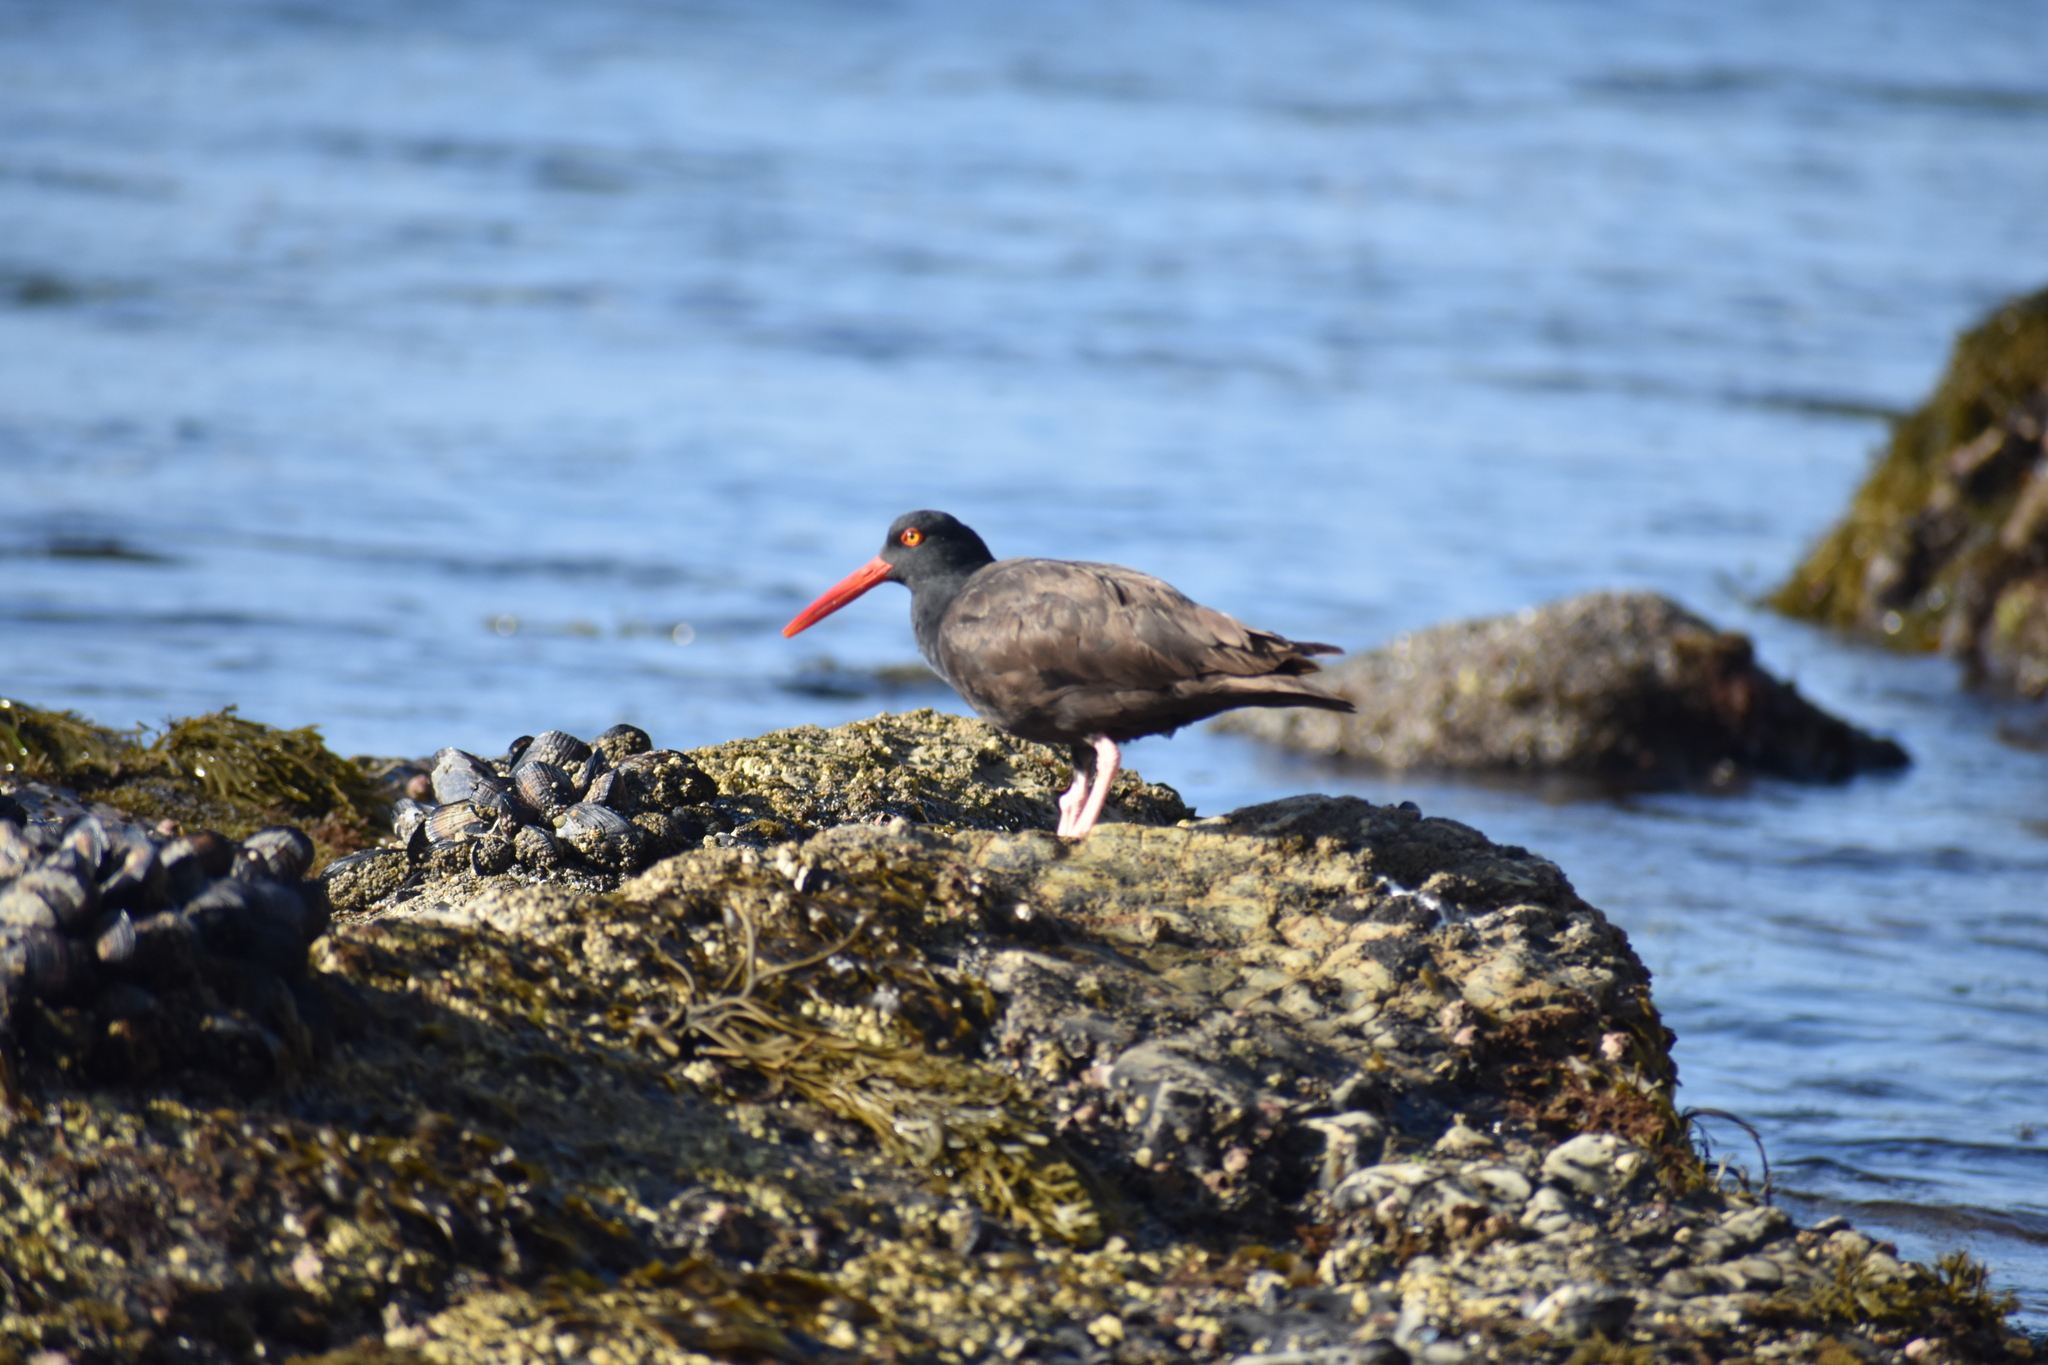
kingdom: Animalia
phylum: Chordata
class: Aves
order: Charadriiformes
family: Haematopodidae
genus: Haematopus
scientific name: Haematopus bachmani
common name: Black oystercatcher
